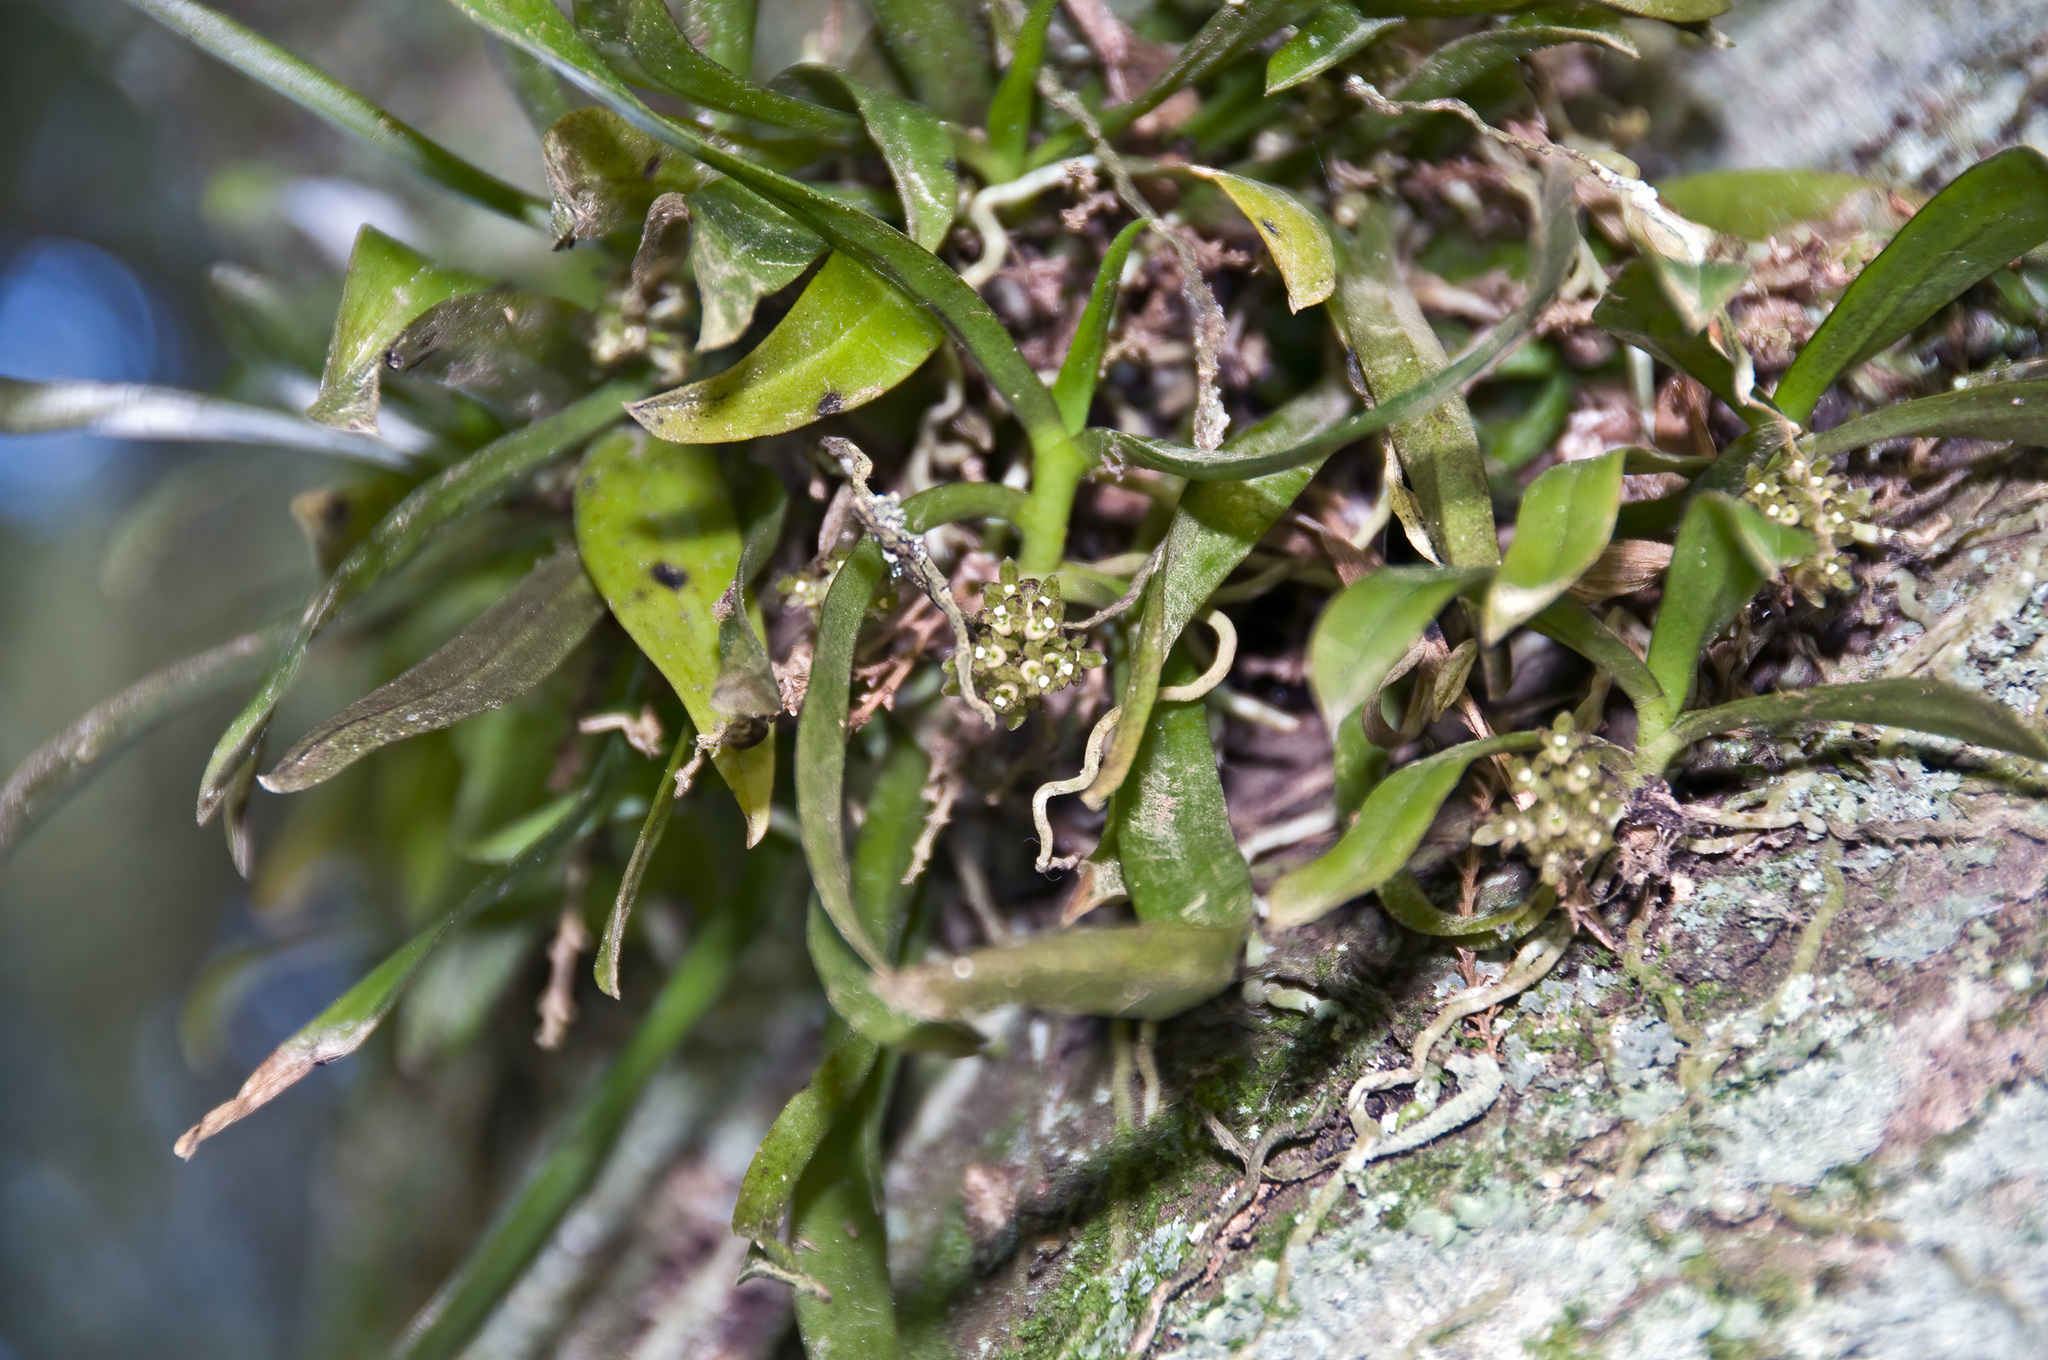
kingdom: Plantae
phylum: Tracheophyta
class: Liliopsida
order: Asparagales
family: Orchidaceae
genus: Drymoanthus
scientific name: Drymoanthus adversus
